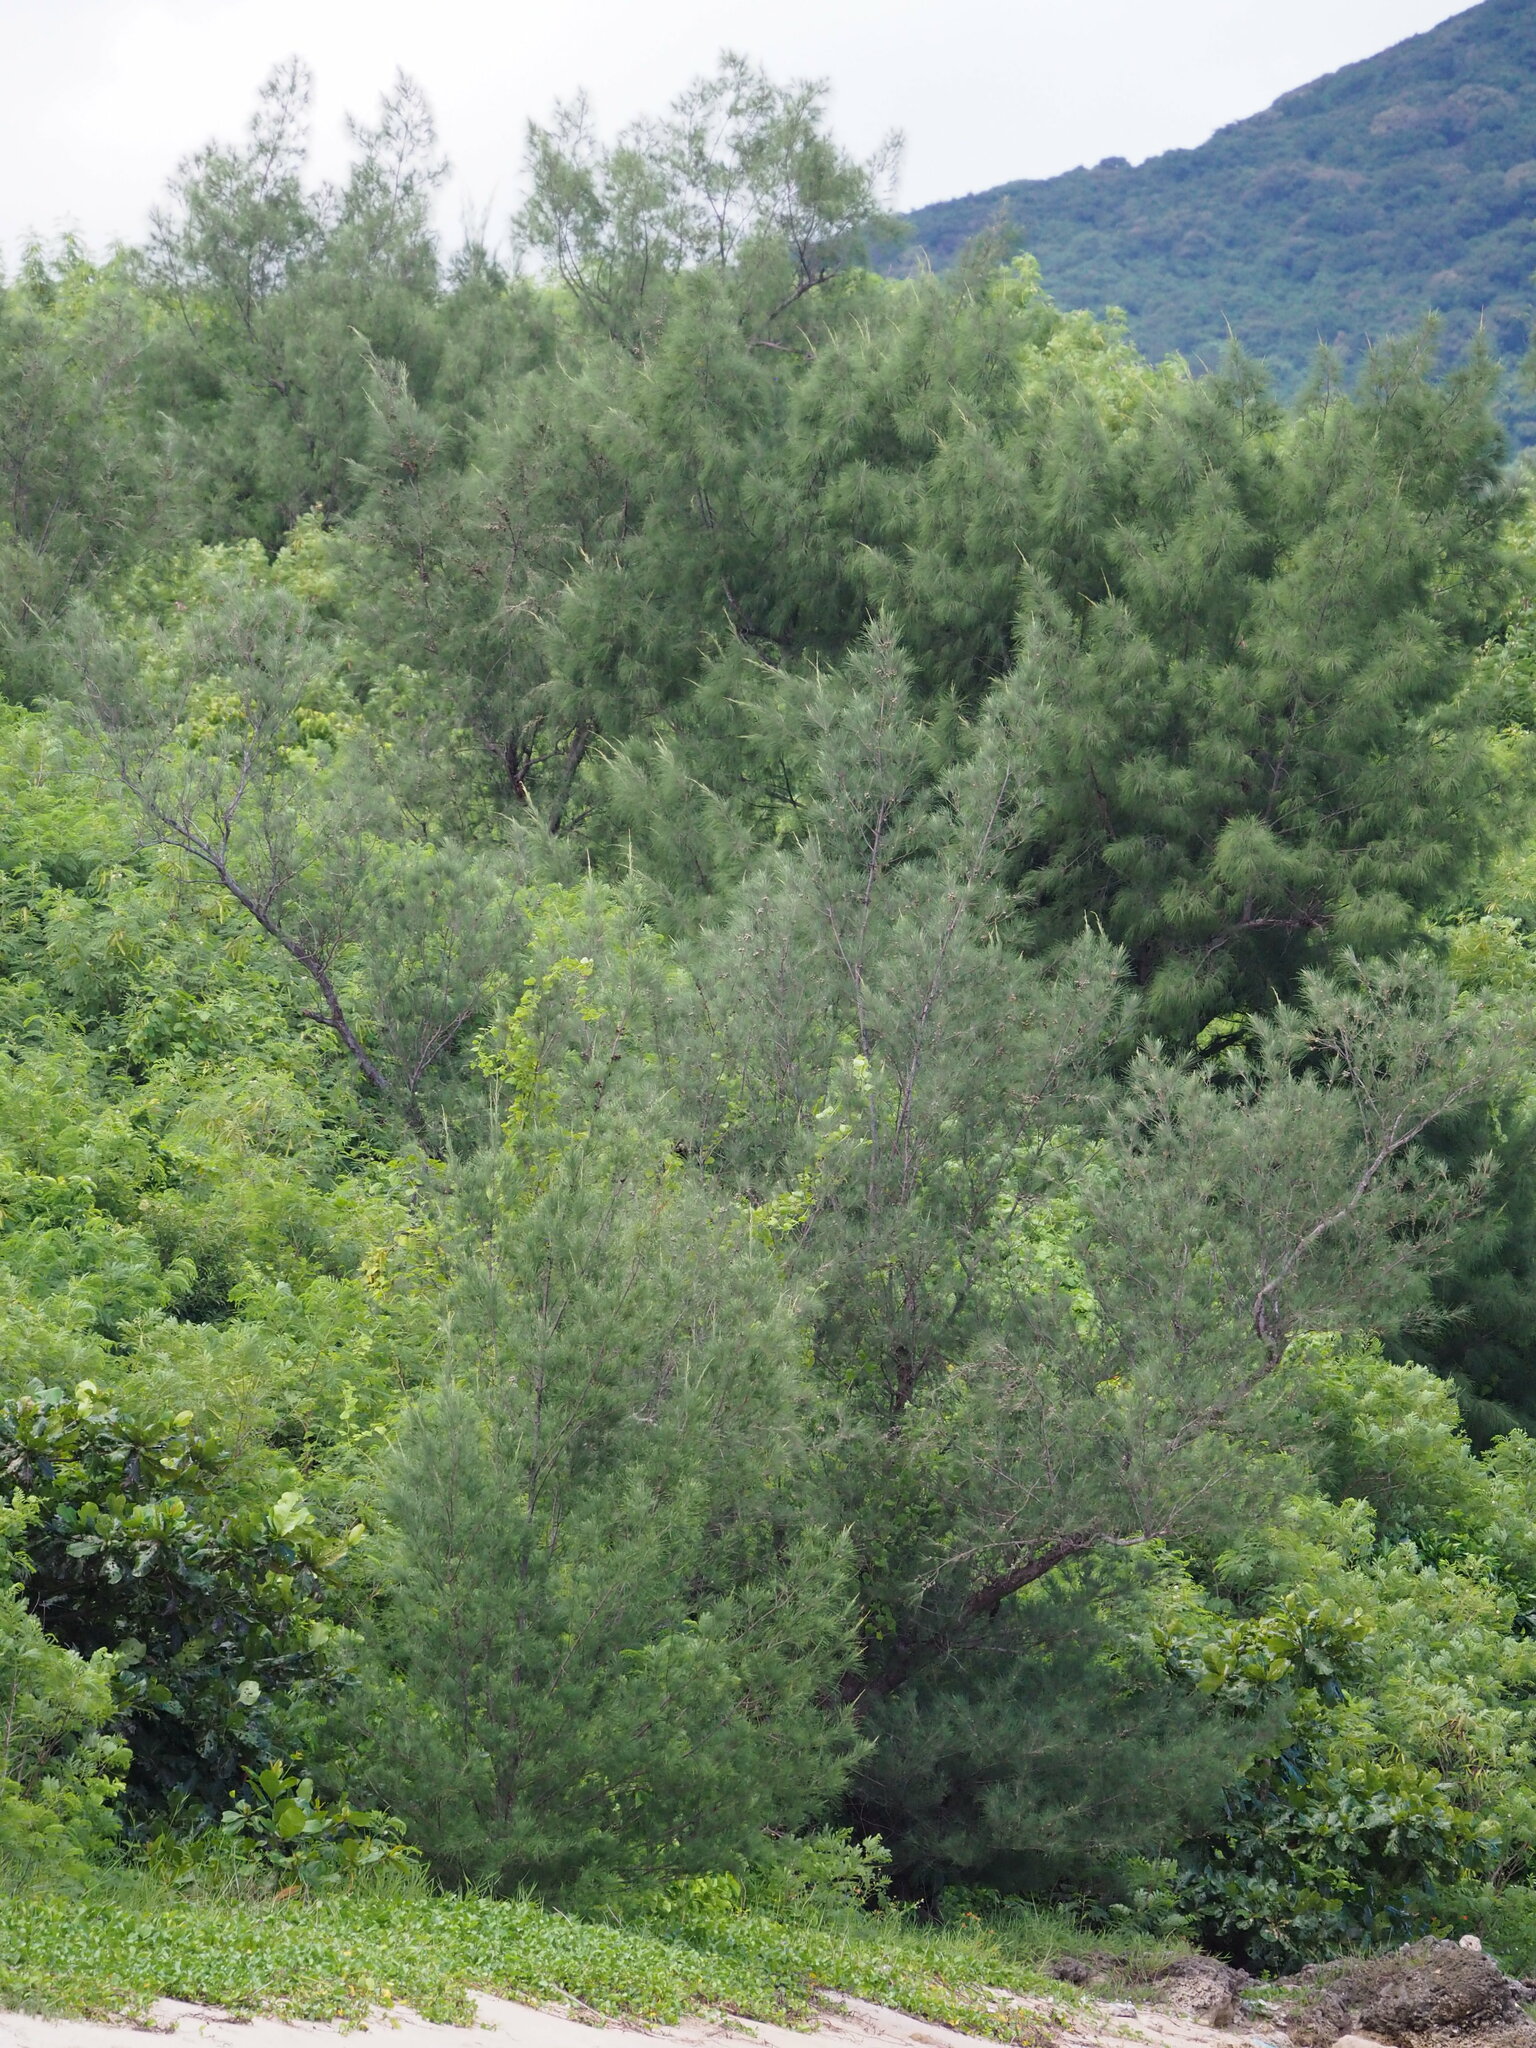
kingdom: Plantae
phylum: Tracheophyta
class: Magnoliopsida
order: Fagales
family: Casuarinaceae
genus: Casuarina
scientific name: Casuarina equisetifolia
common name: Beach sheoak
